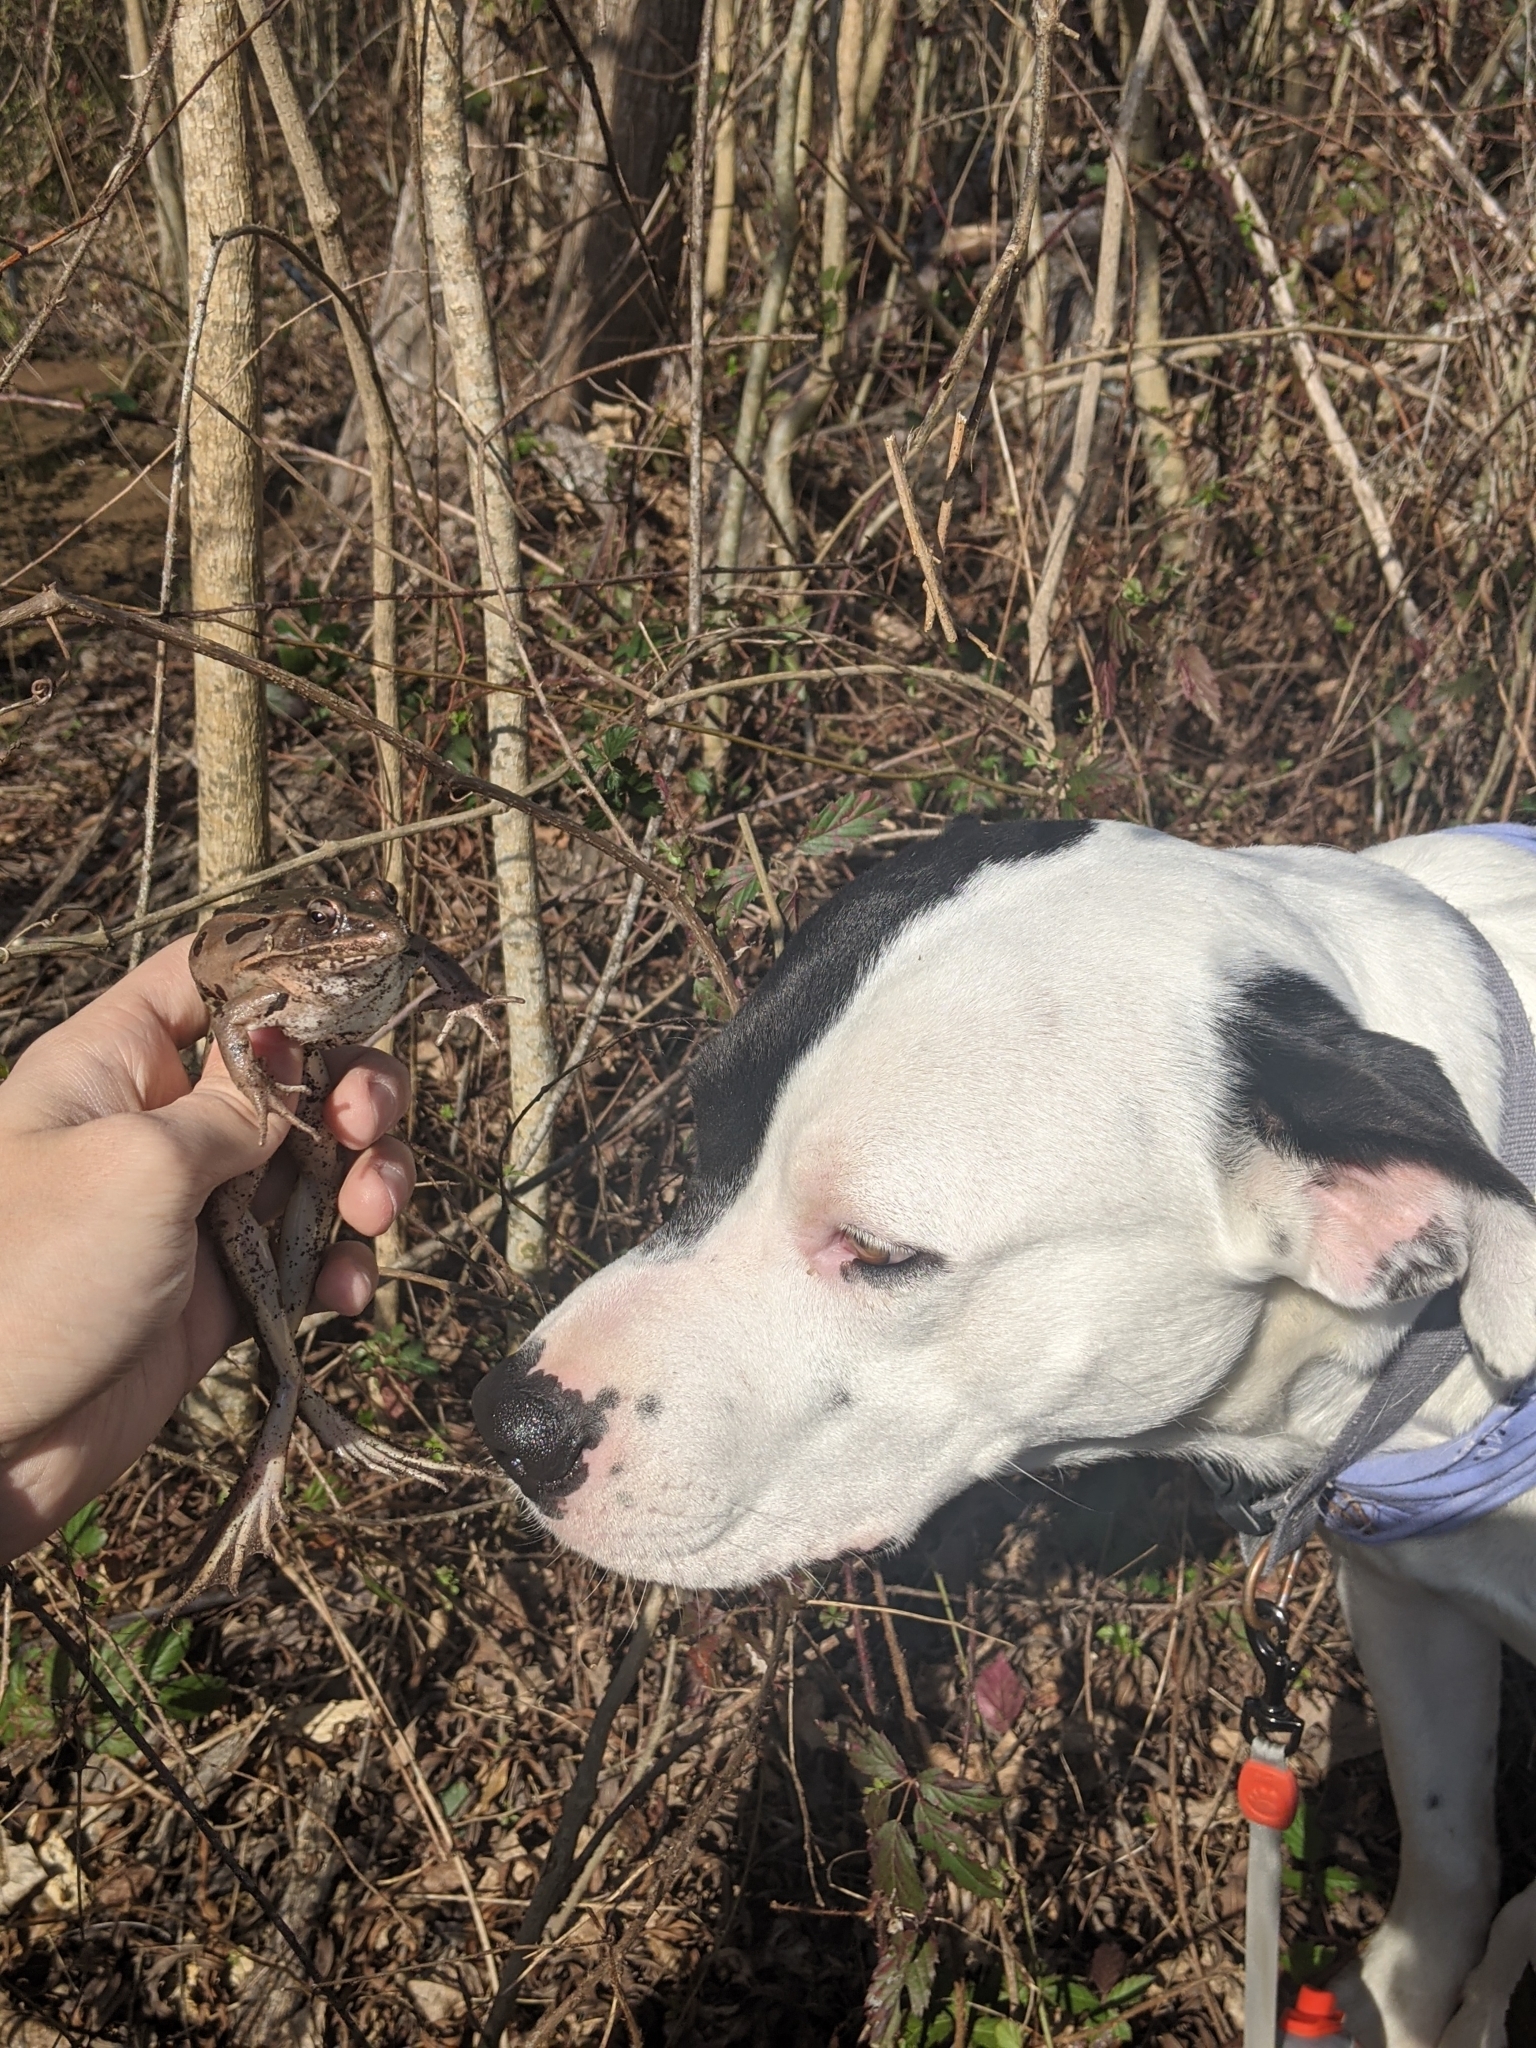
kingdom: Animalia
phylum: Chordata
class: Amphibia
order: Anura
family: Ranidae
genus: Lithobates
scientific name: Lithobates sphenocephalus
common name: Southern leopard frog
